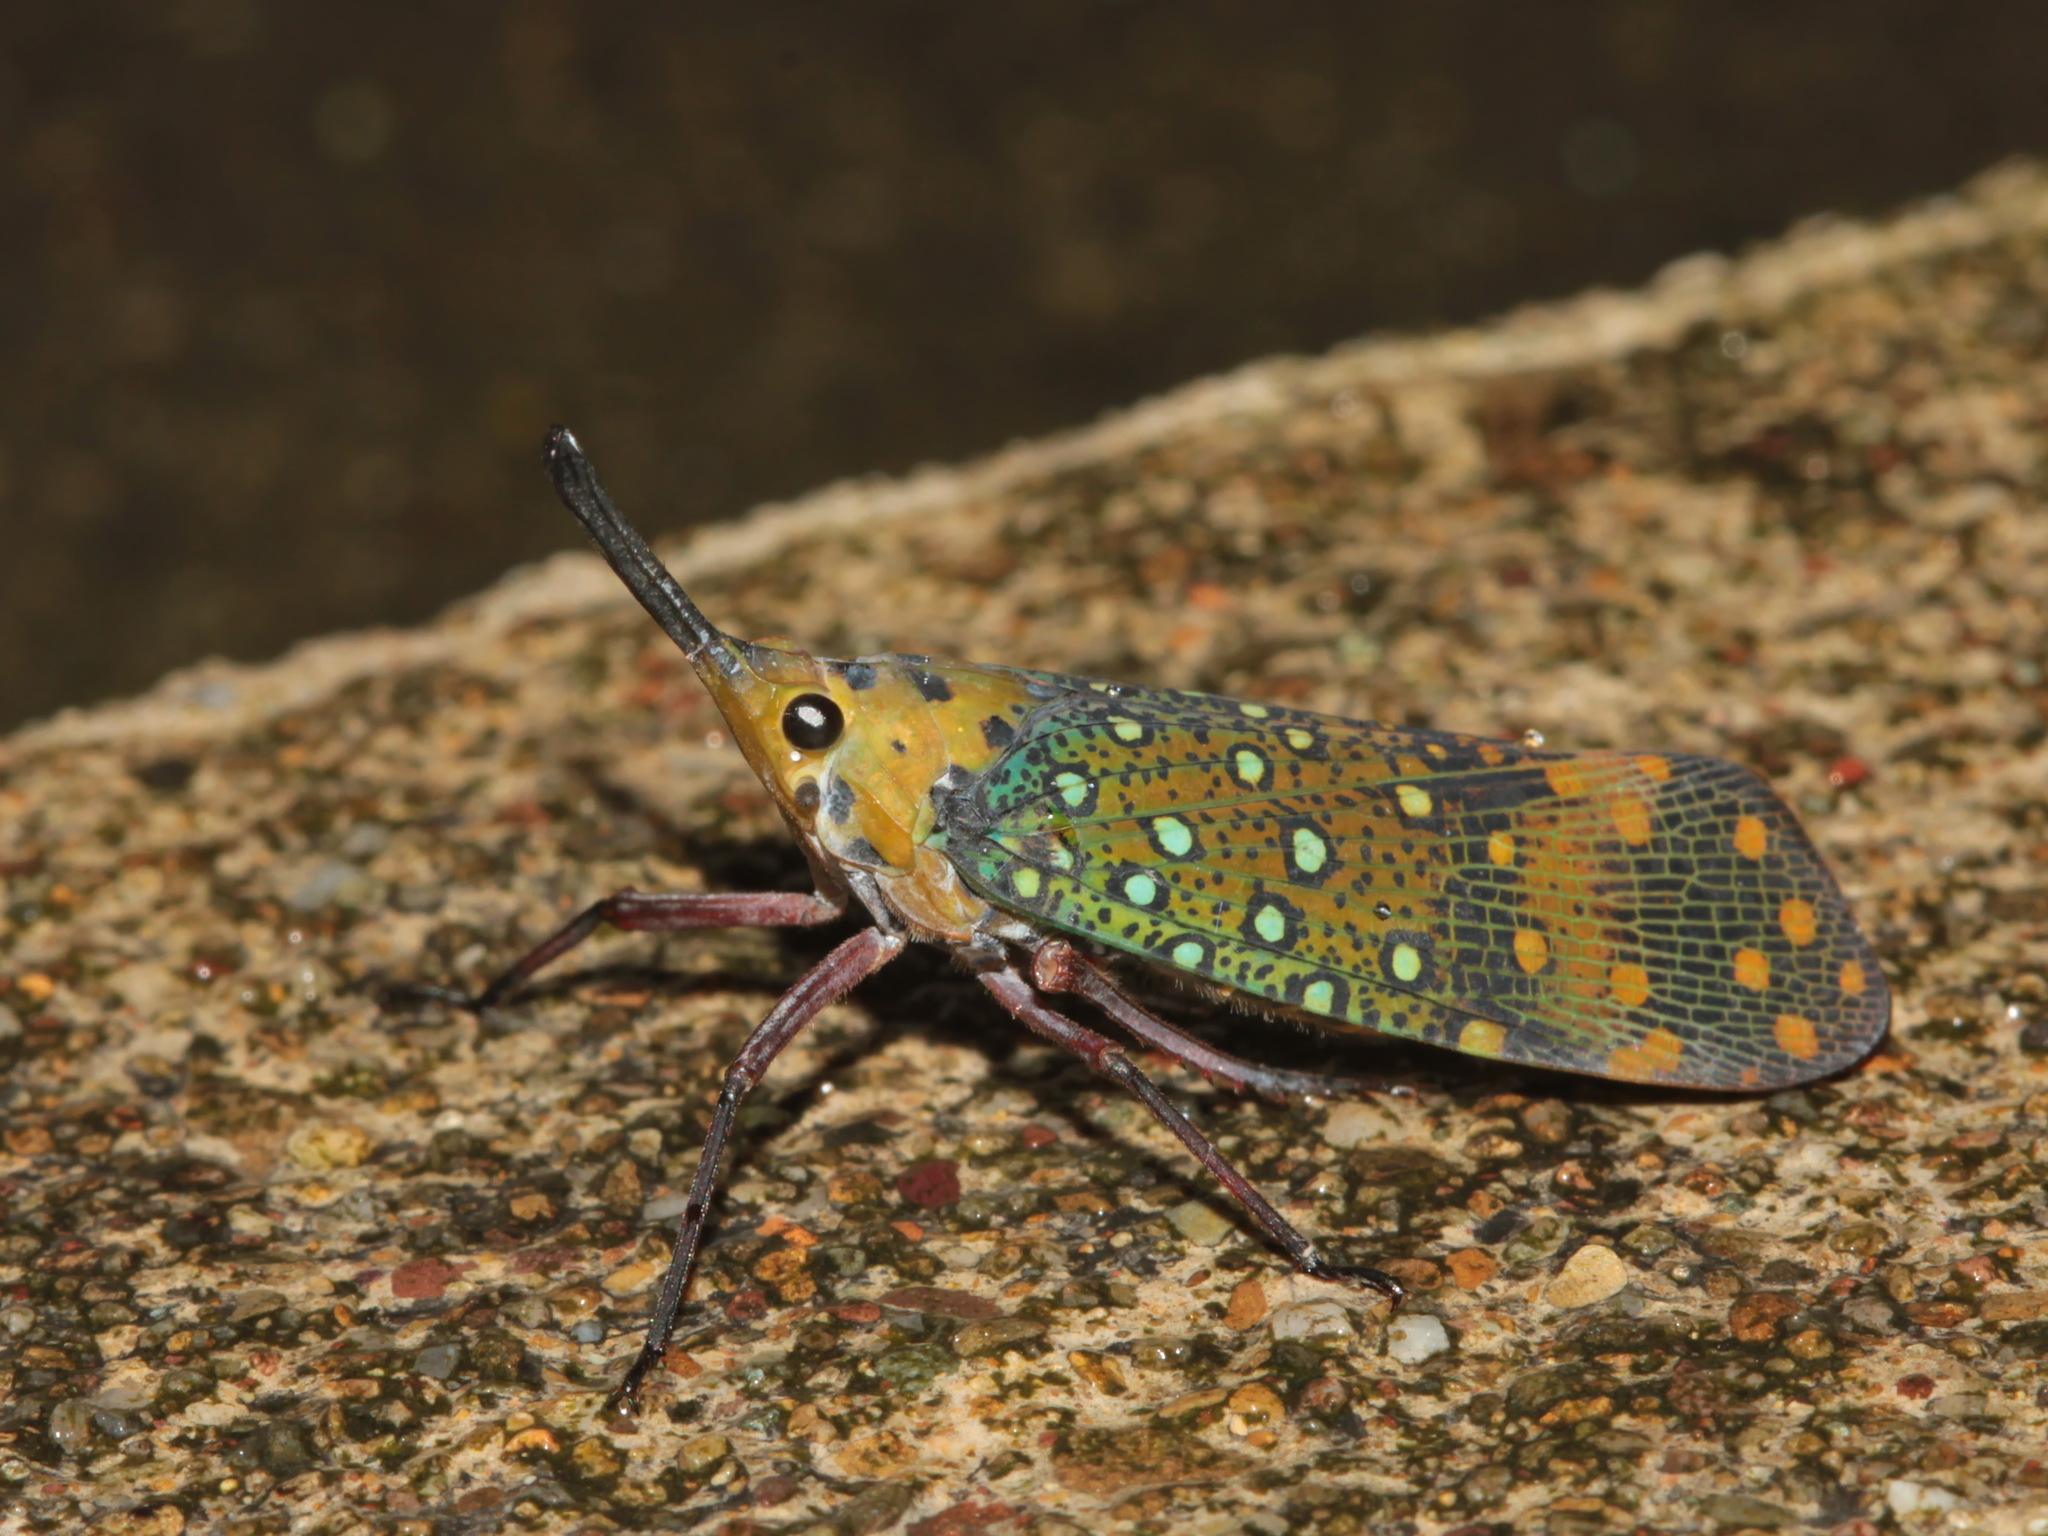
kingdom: Animalia
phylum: Arthropoda
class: Insecta
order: Hemiptera
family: Fulgoridae
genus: Saiva
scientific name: Saiva bullata
